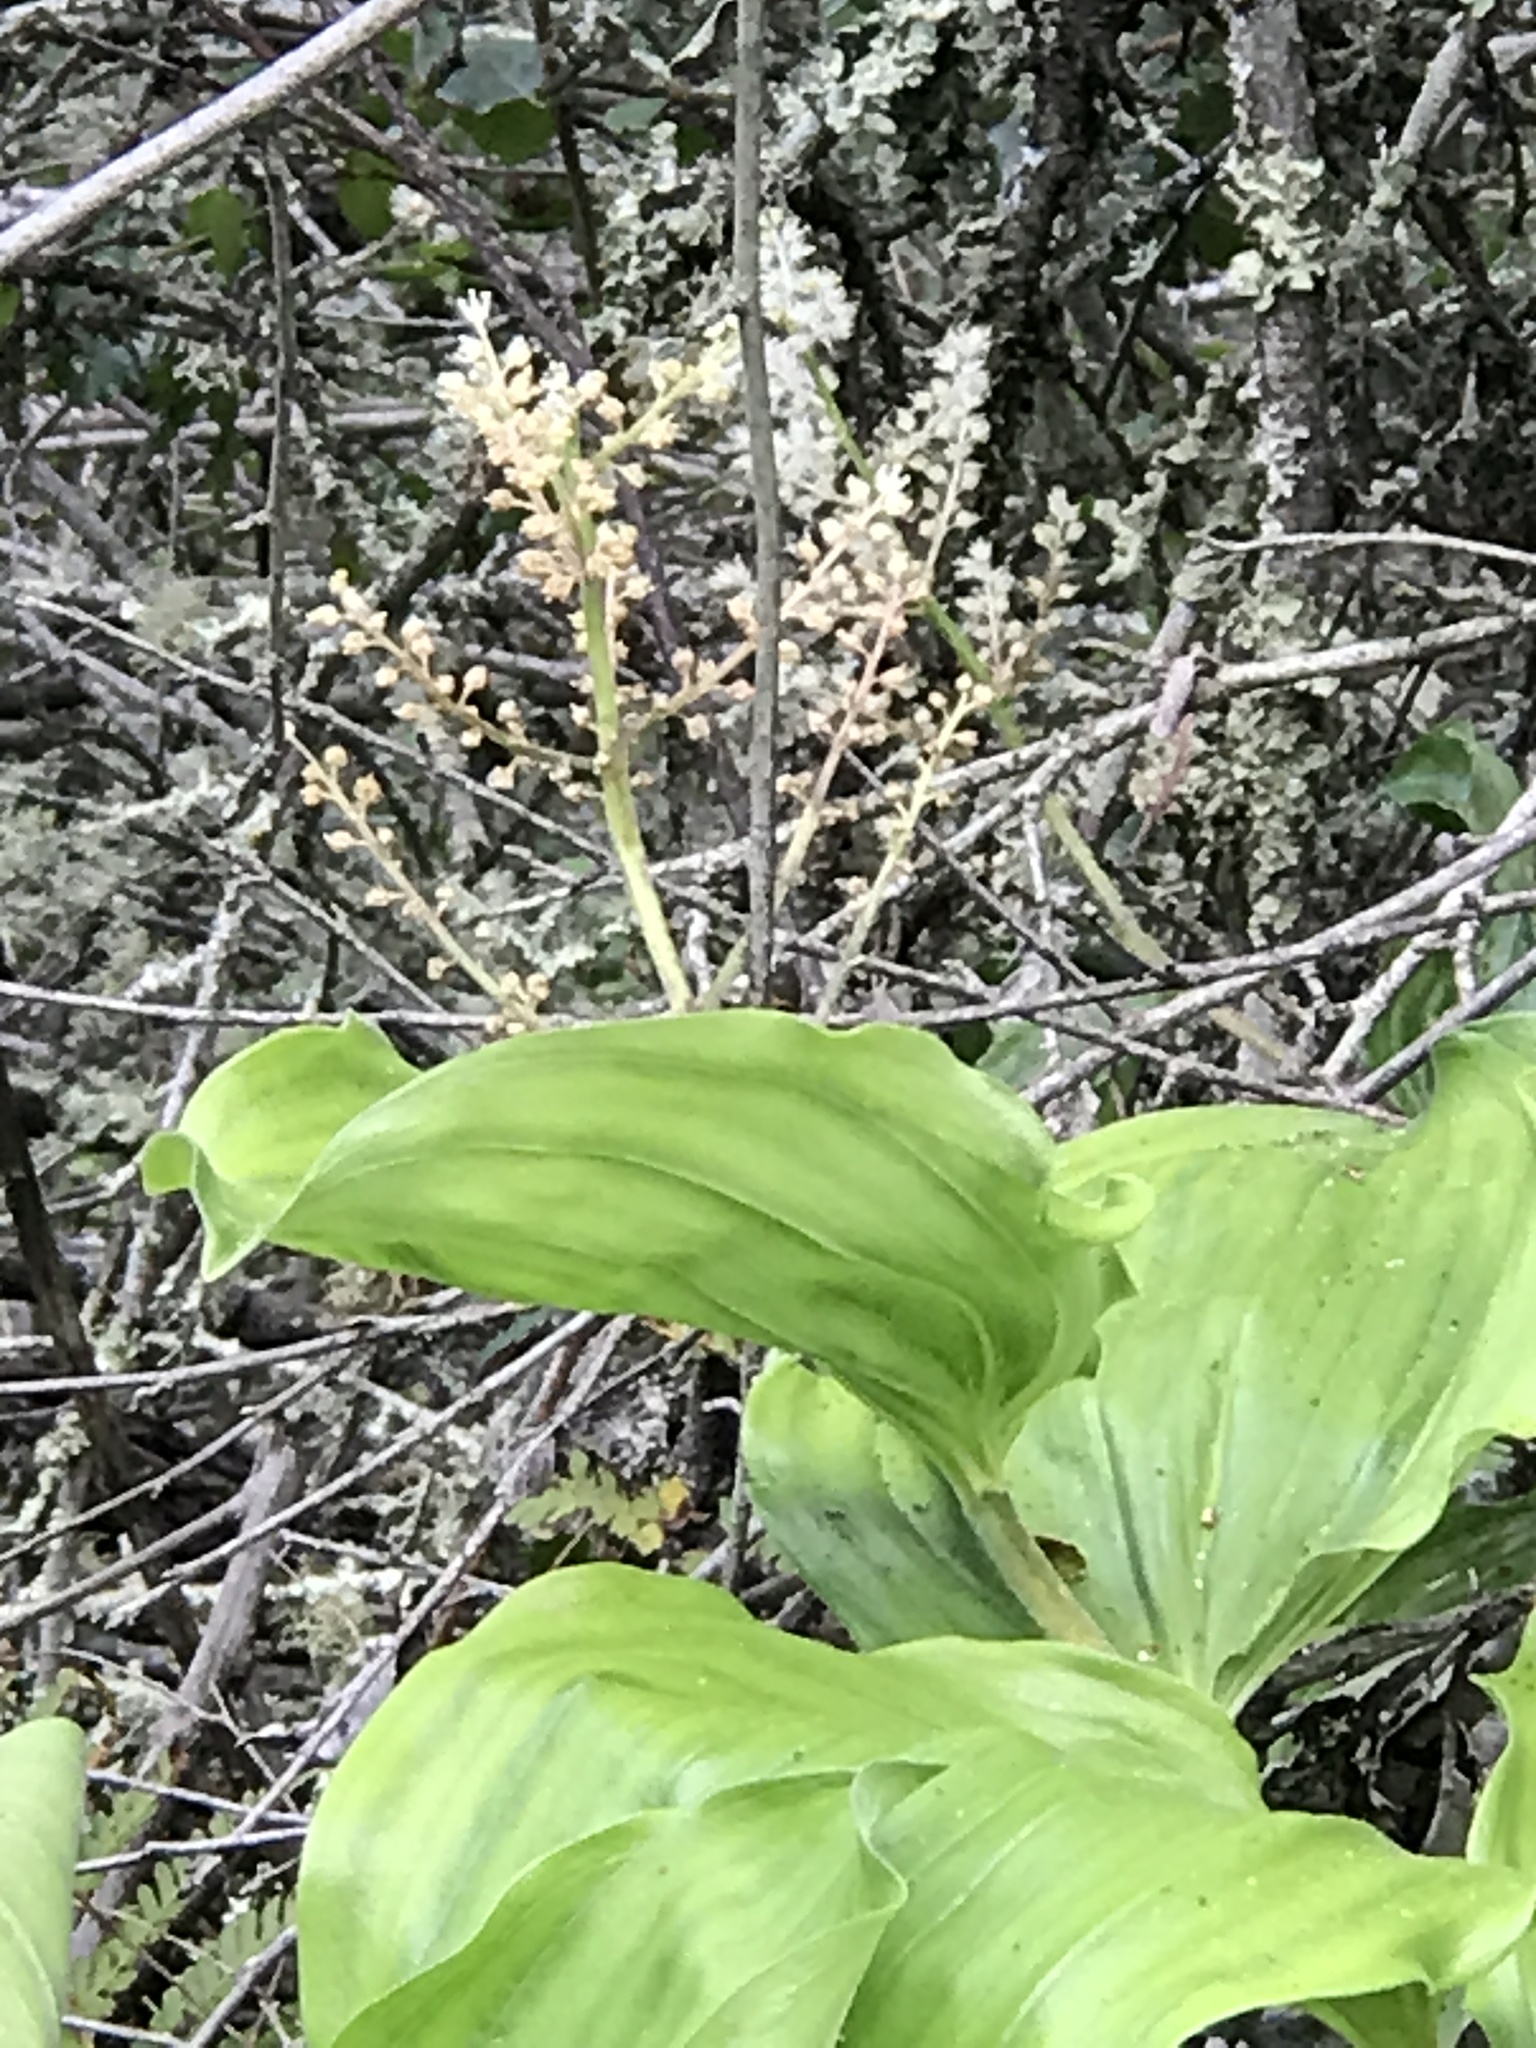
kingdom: Plantae
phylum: Tracheophyta
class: Liliopsida
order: Asparagales
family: Asparagaceae
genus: Maianthemum
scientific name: Maianthemum racemosum
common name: False spikenard
